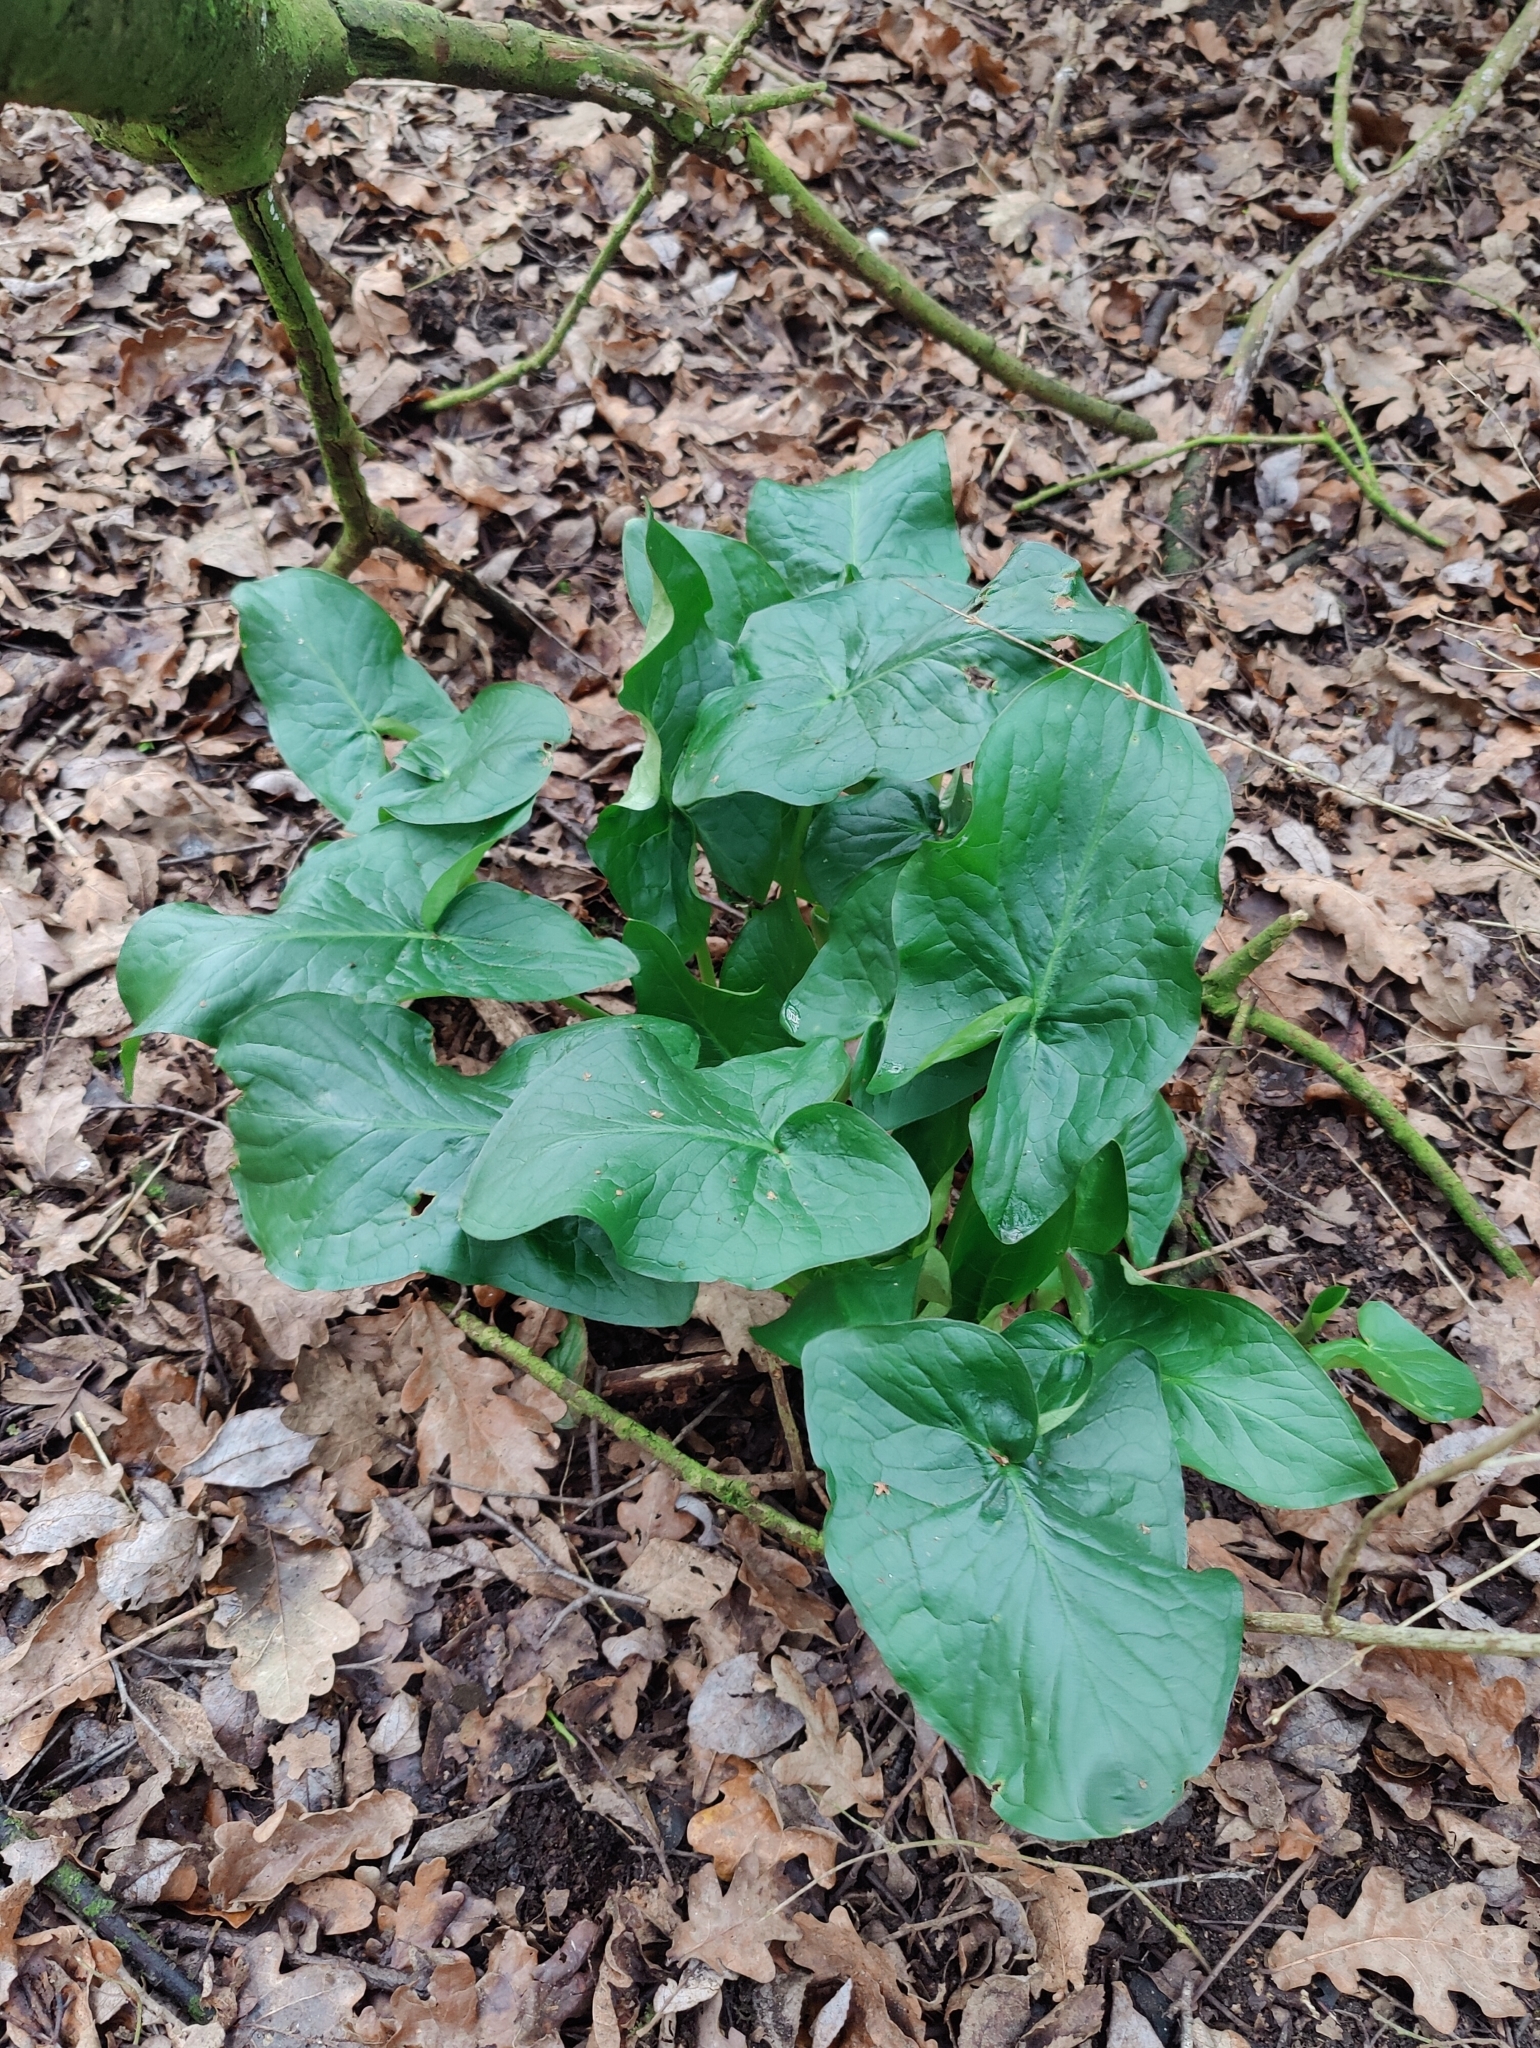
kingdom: Plantae
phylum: Tracheophyta
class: Liliopsida
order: Alismatales
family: Araceae
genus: Arum
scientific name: Arum maculatum
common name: Lords-and-ladies
